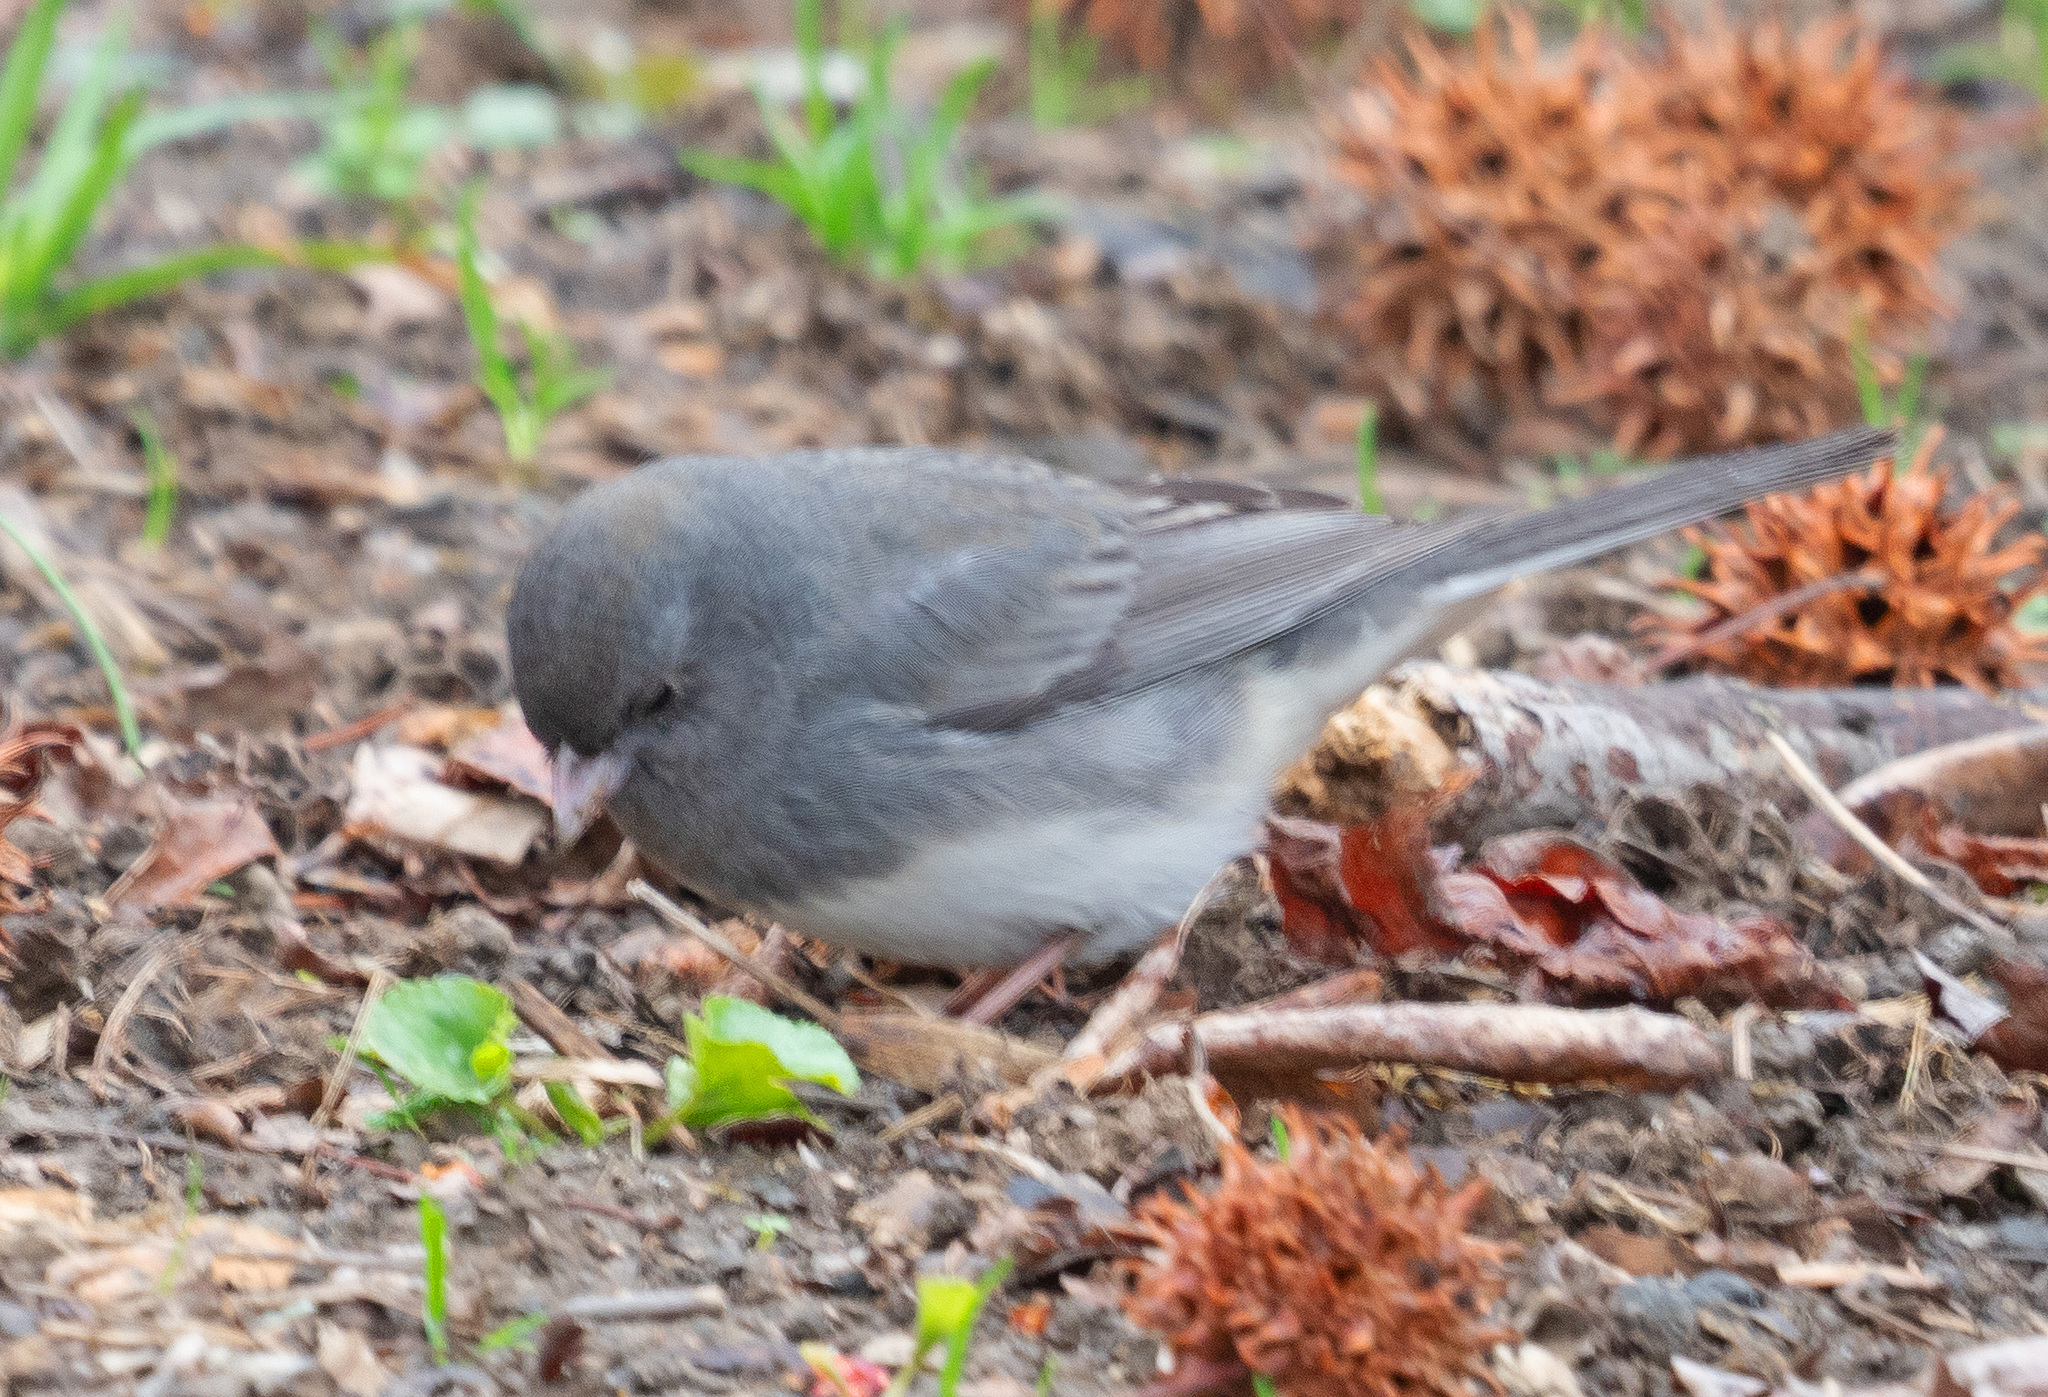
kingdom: Animalia
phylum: Chordata
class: Aves
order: Passeriformes
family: Passerellidae
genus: Junco
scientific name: Junco hyemalis
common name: Dark-eyed junco
